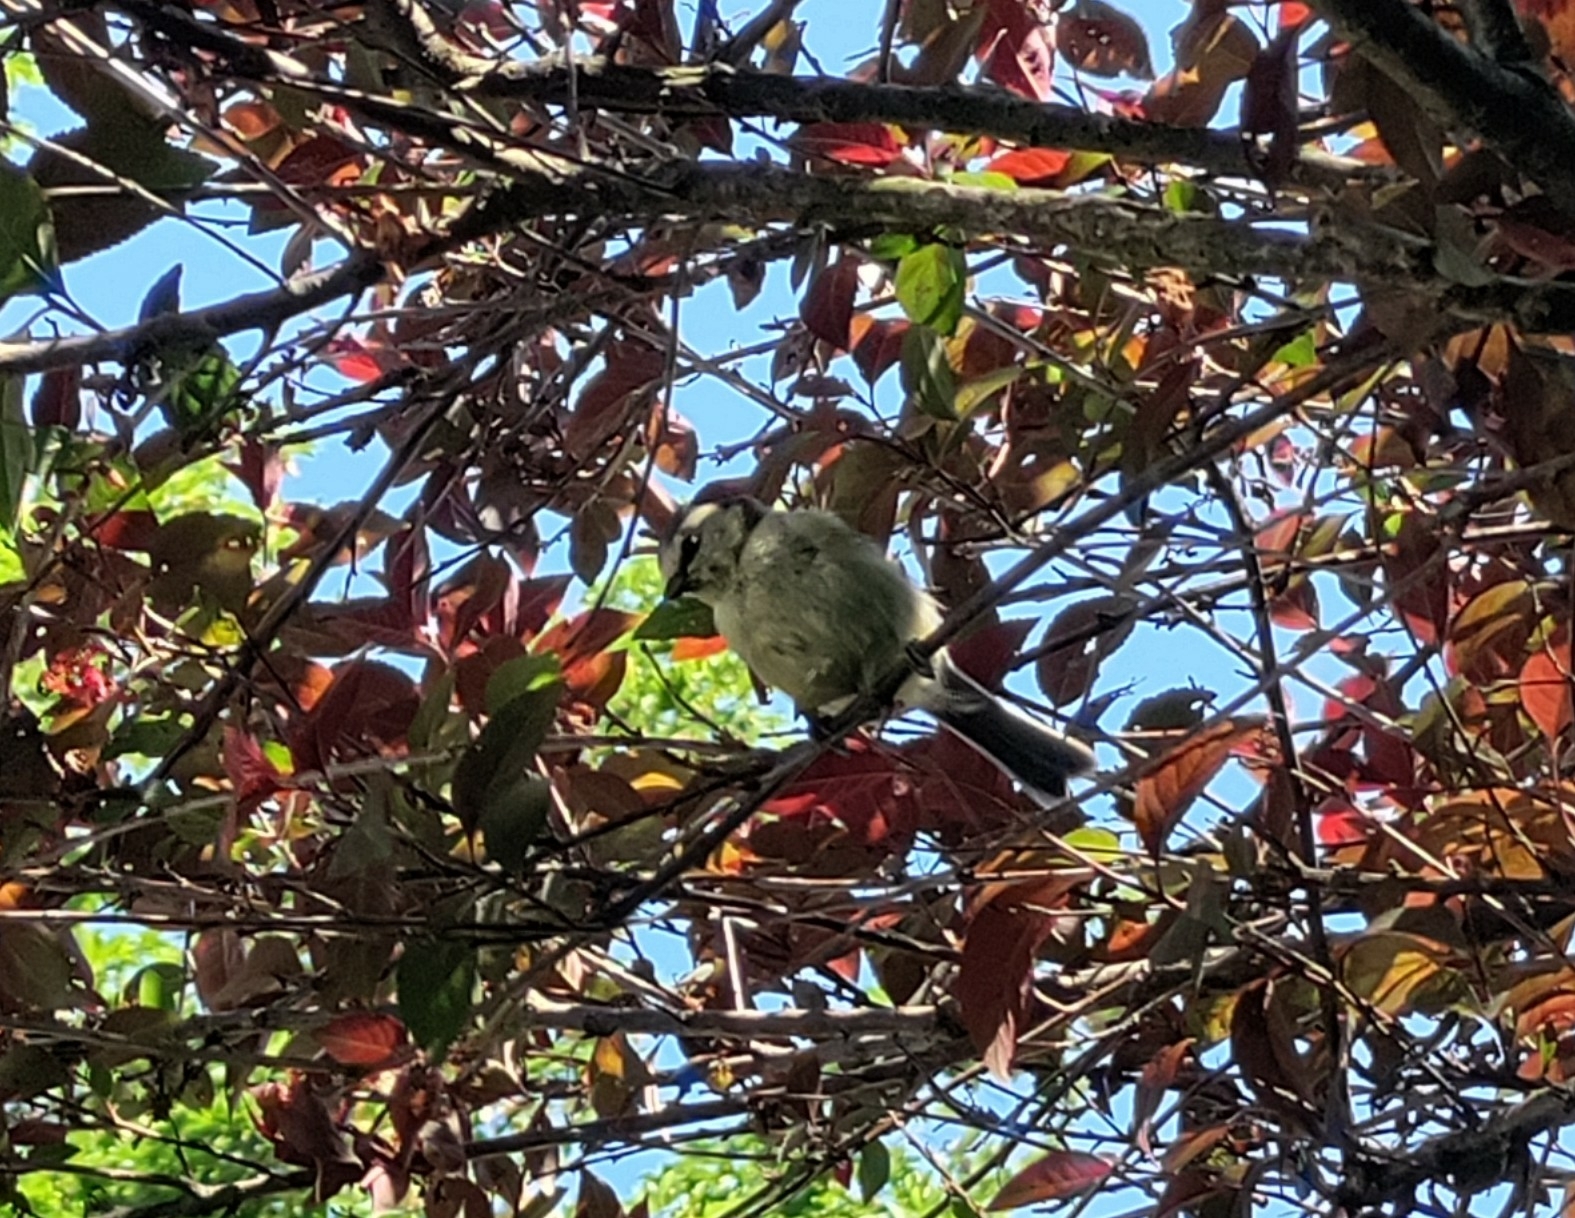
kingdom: Animalia
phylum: Chordata
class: Aves
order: Passeriformes
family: Paridae
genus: Cyanistes
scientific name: Cyanistes caeruleus
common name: Eurasian blue tit
